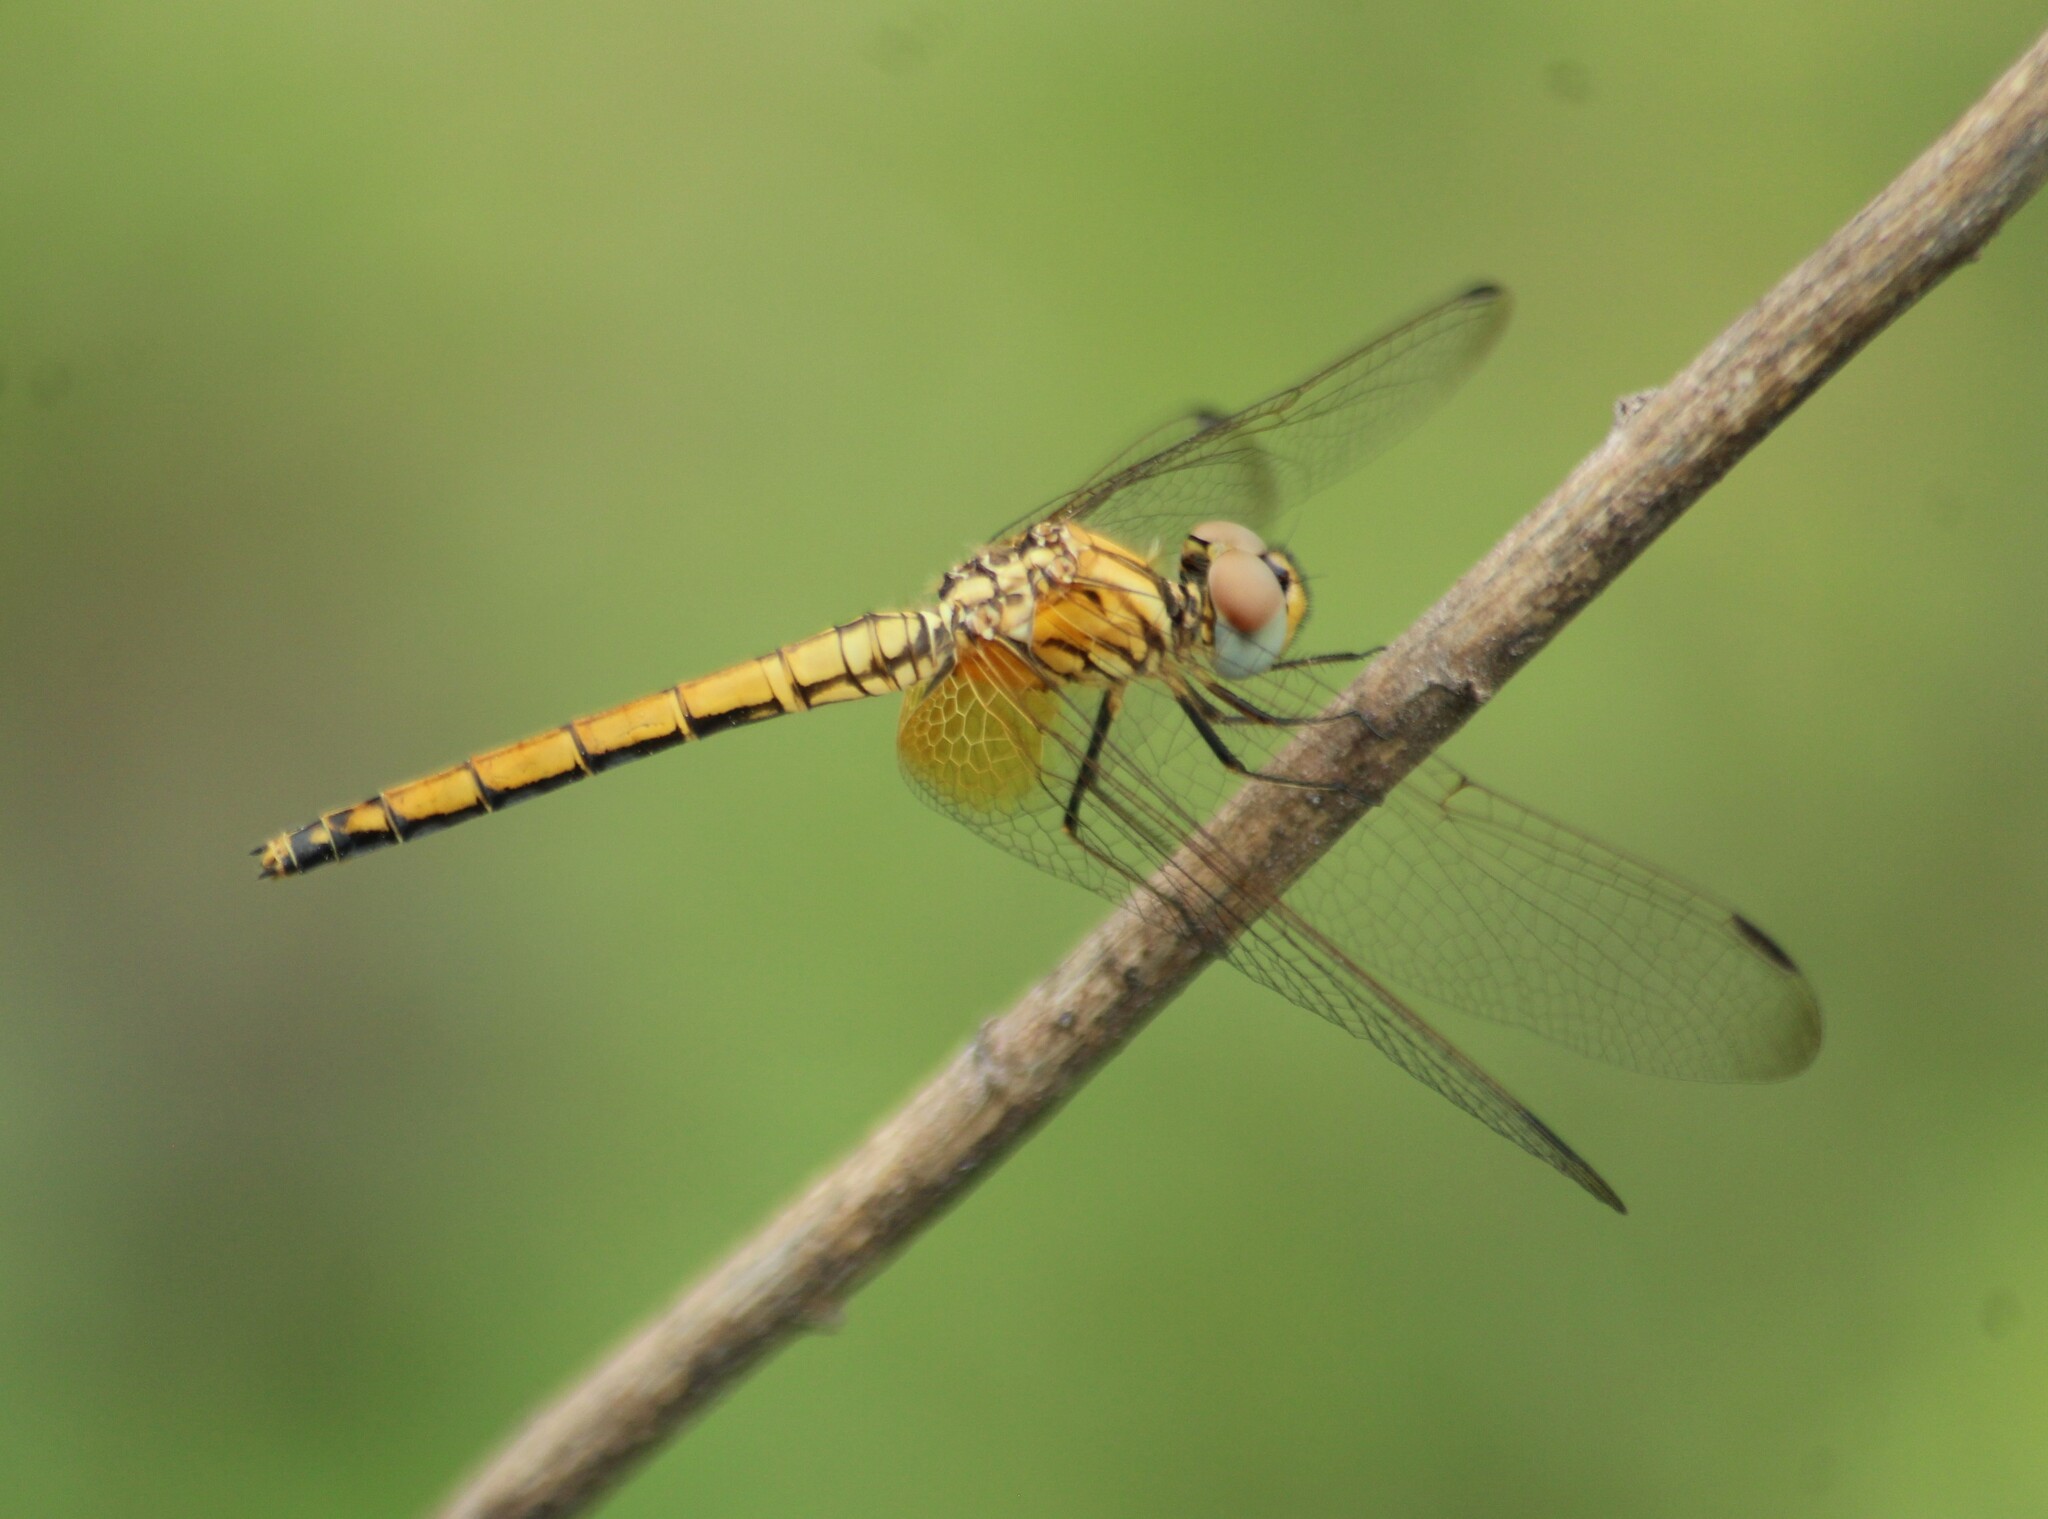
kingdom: Animalia
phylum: Arthropoda
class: Insecta
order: Odonata
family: Libellulidae
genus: Trithemis
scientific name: Trithemis aurora
